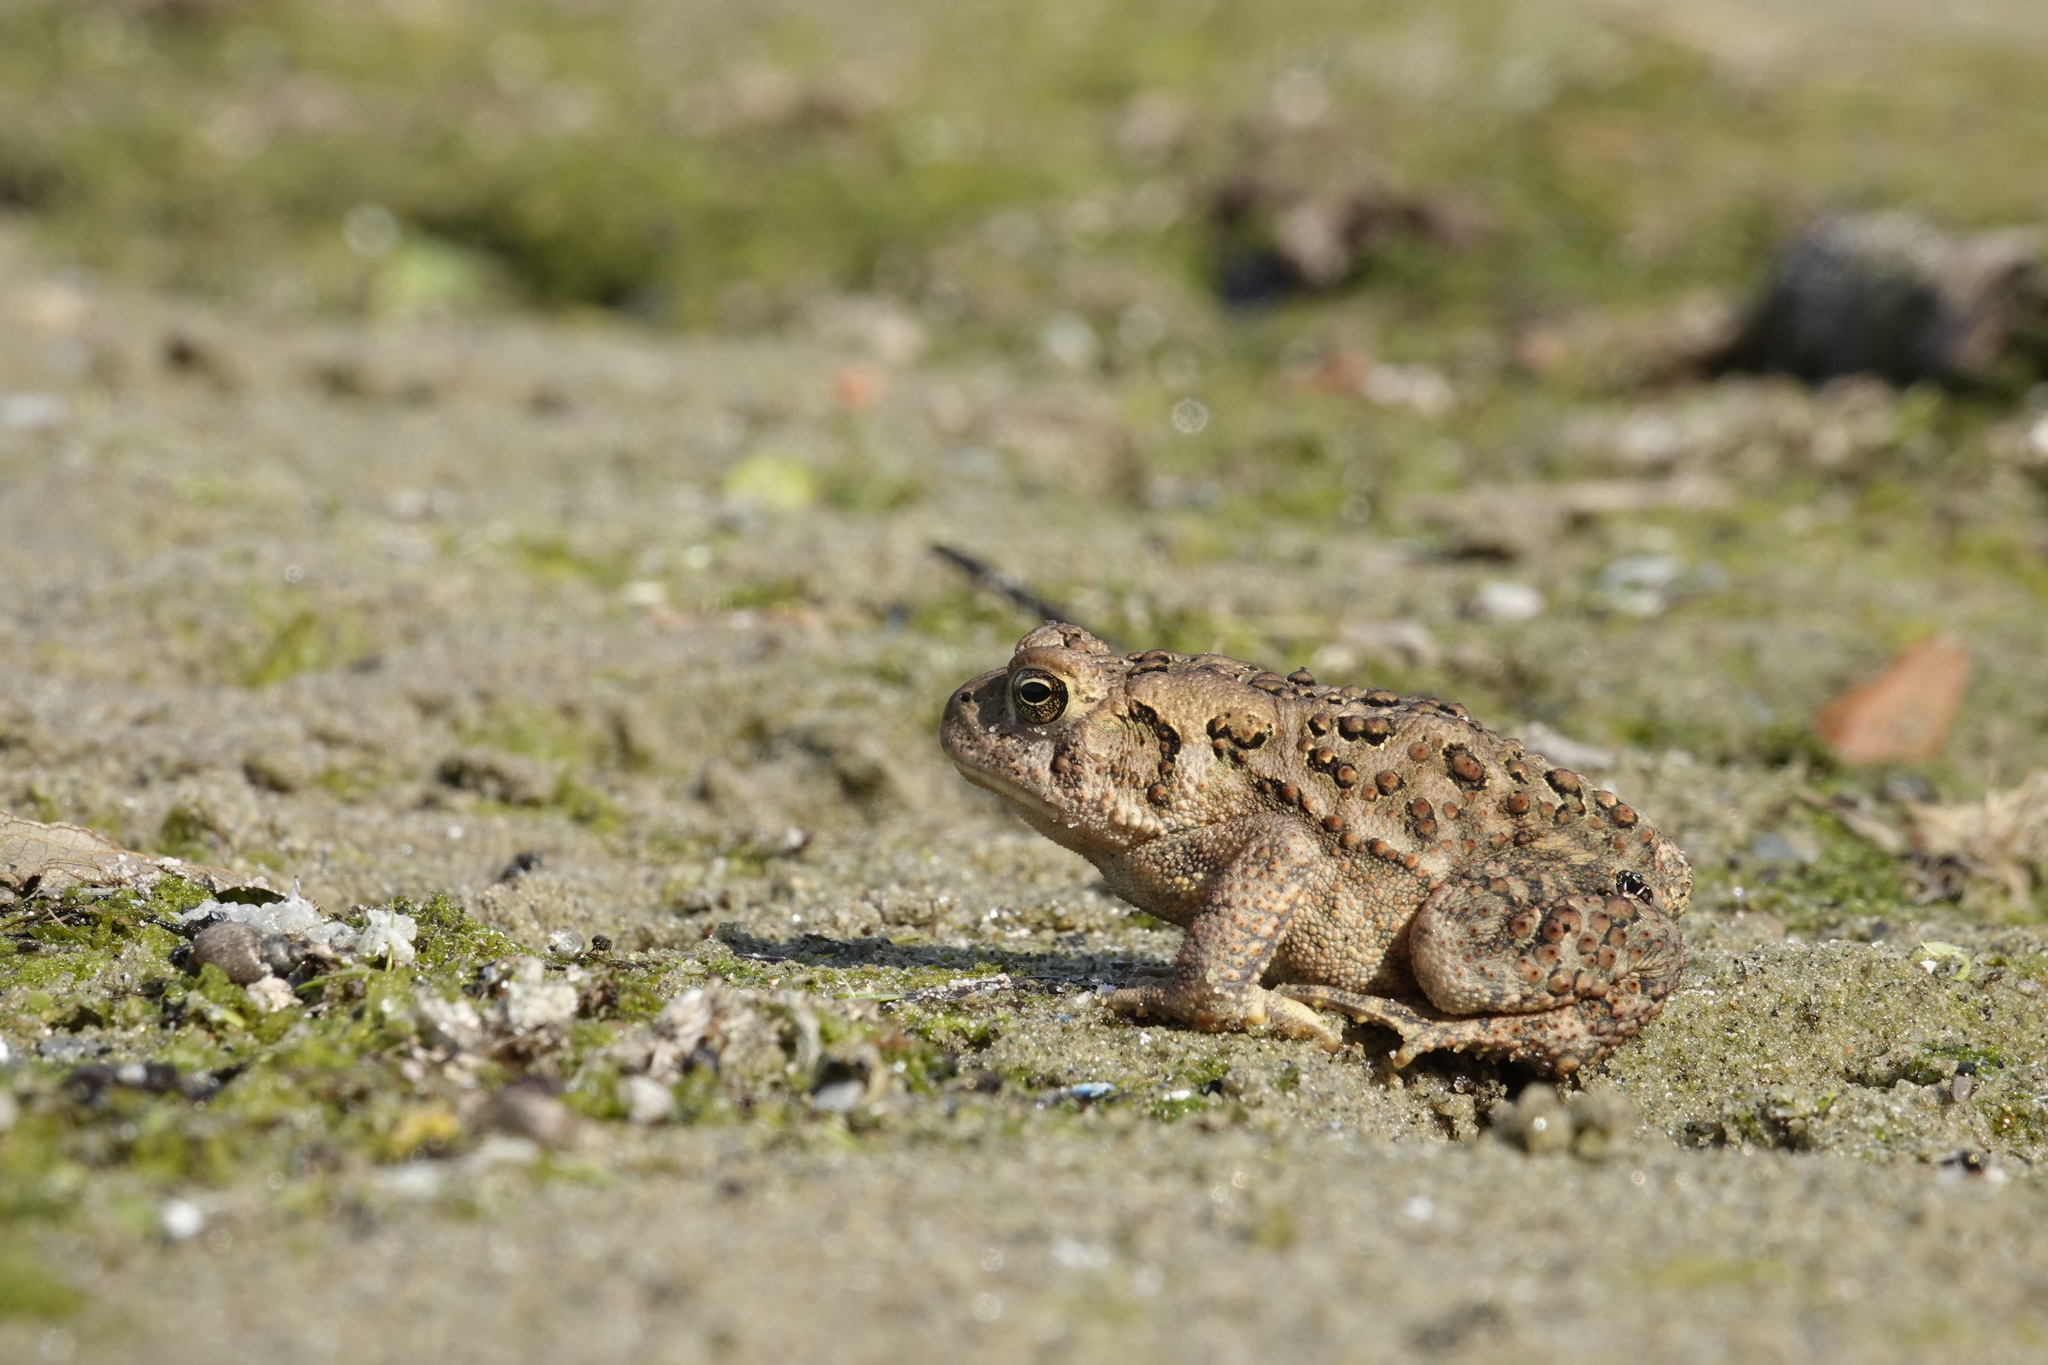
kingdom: Animalia
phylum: Chordata
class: Amphibia
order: Anura
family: Bufonidae
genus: Anaxyrus
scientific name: Anaxyrus americanus
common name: American toad
